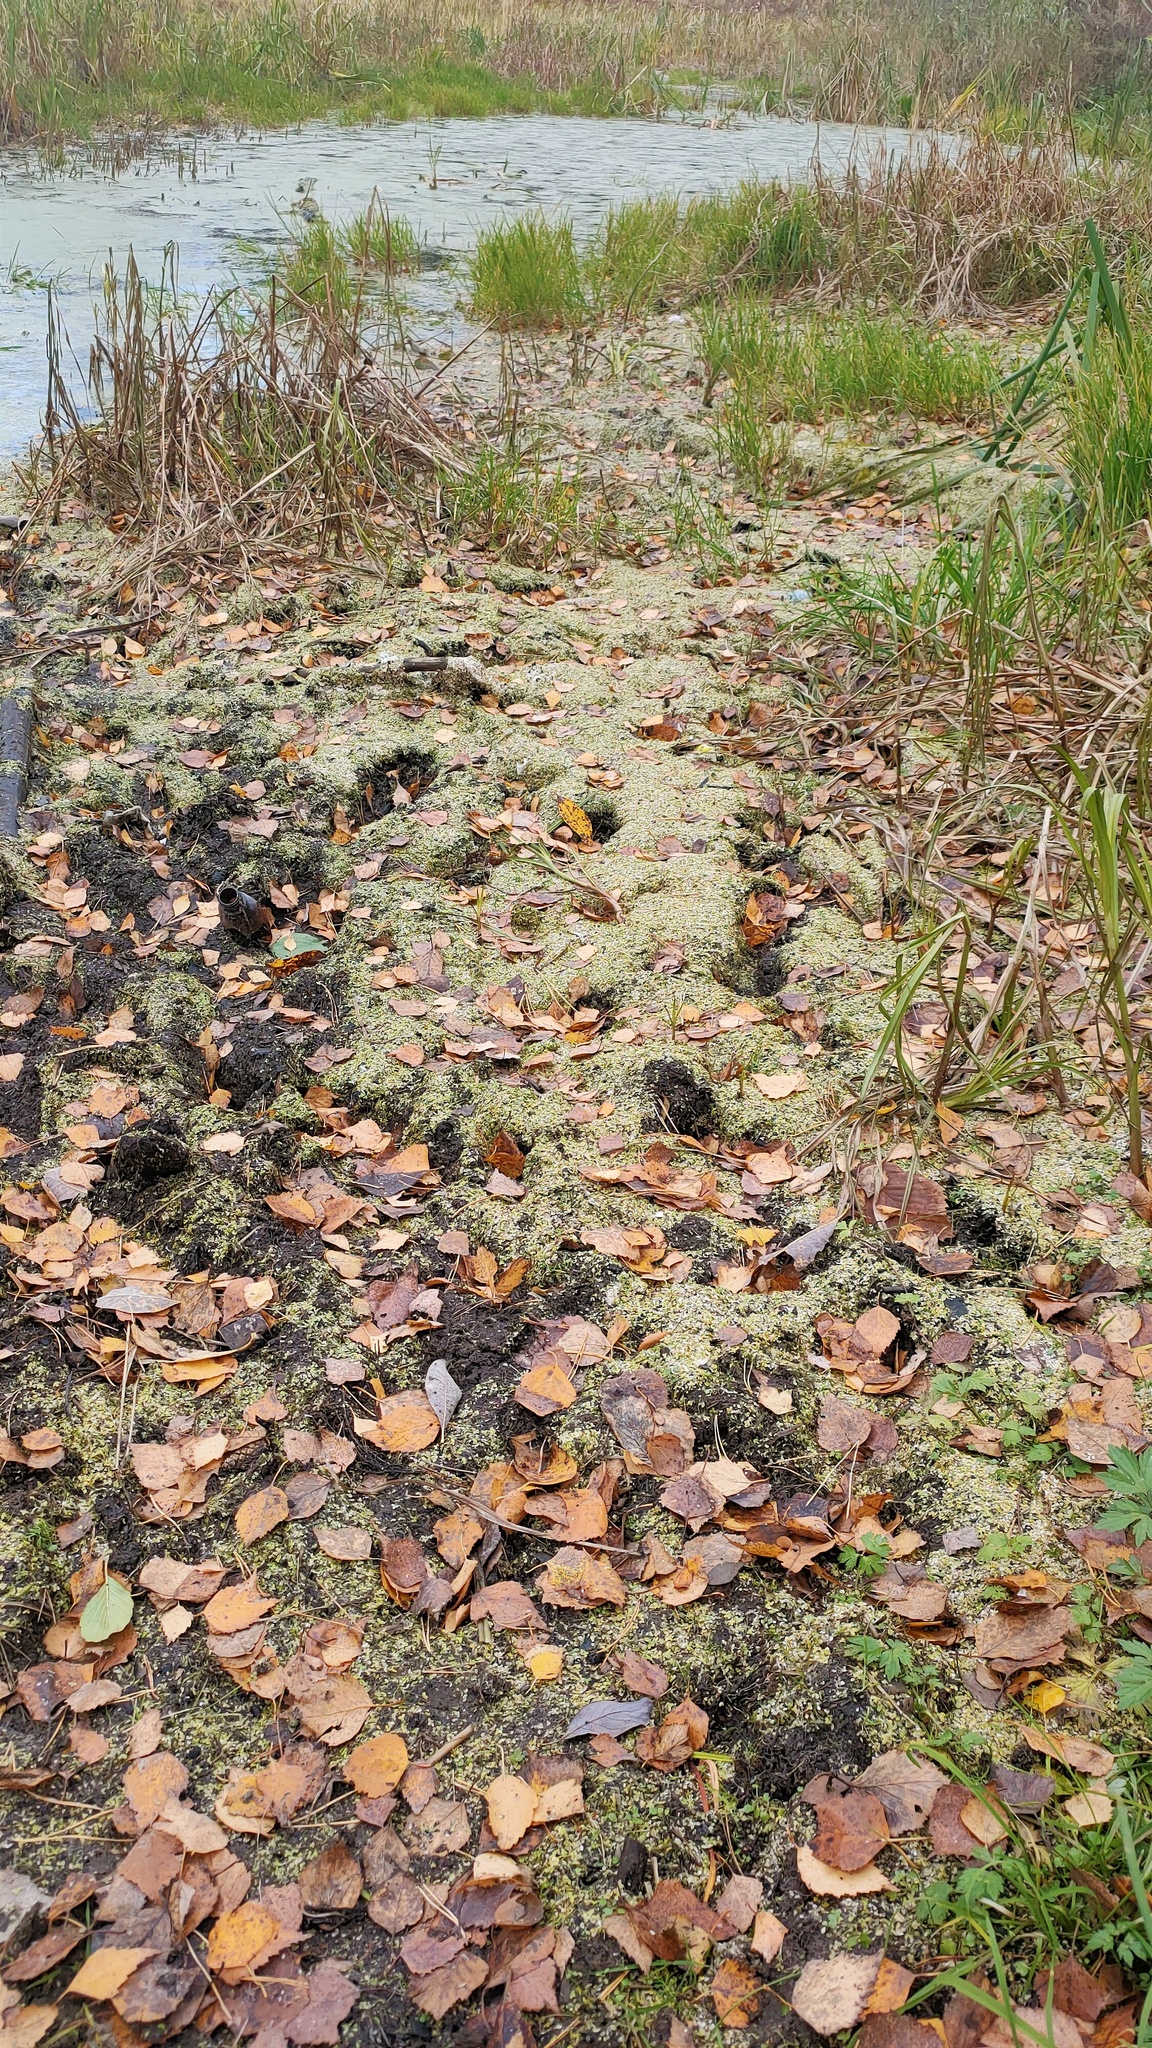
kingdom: Plantae
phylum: Tracheophyta
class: Liliopsida
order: Alismatales
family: Araceae
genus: Lemna
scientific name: Lemna
